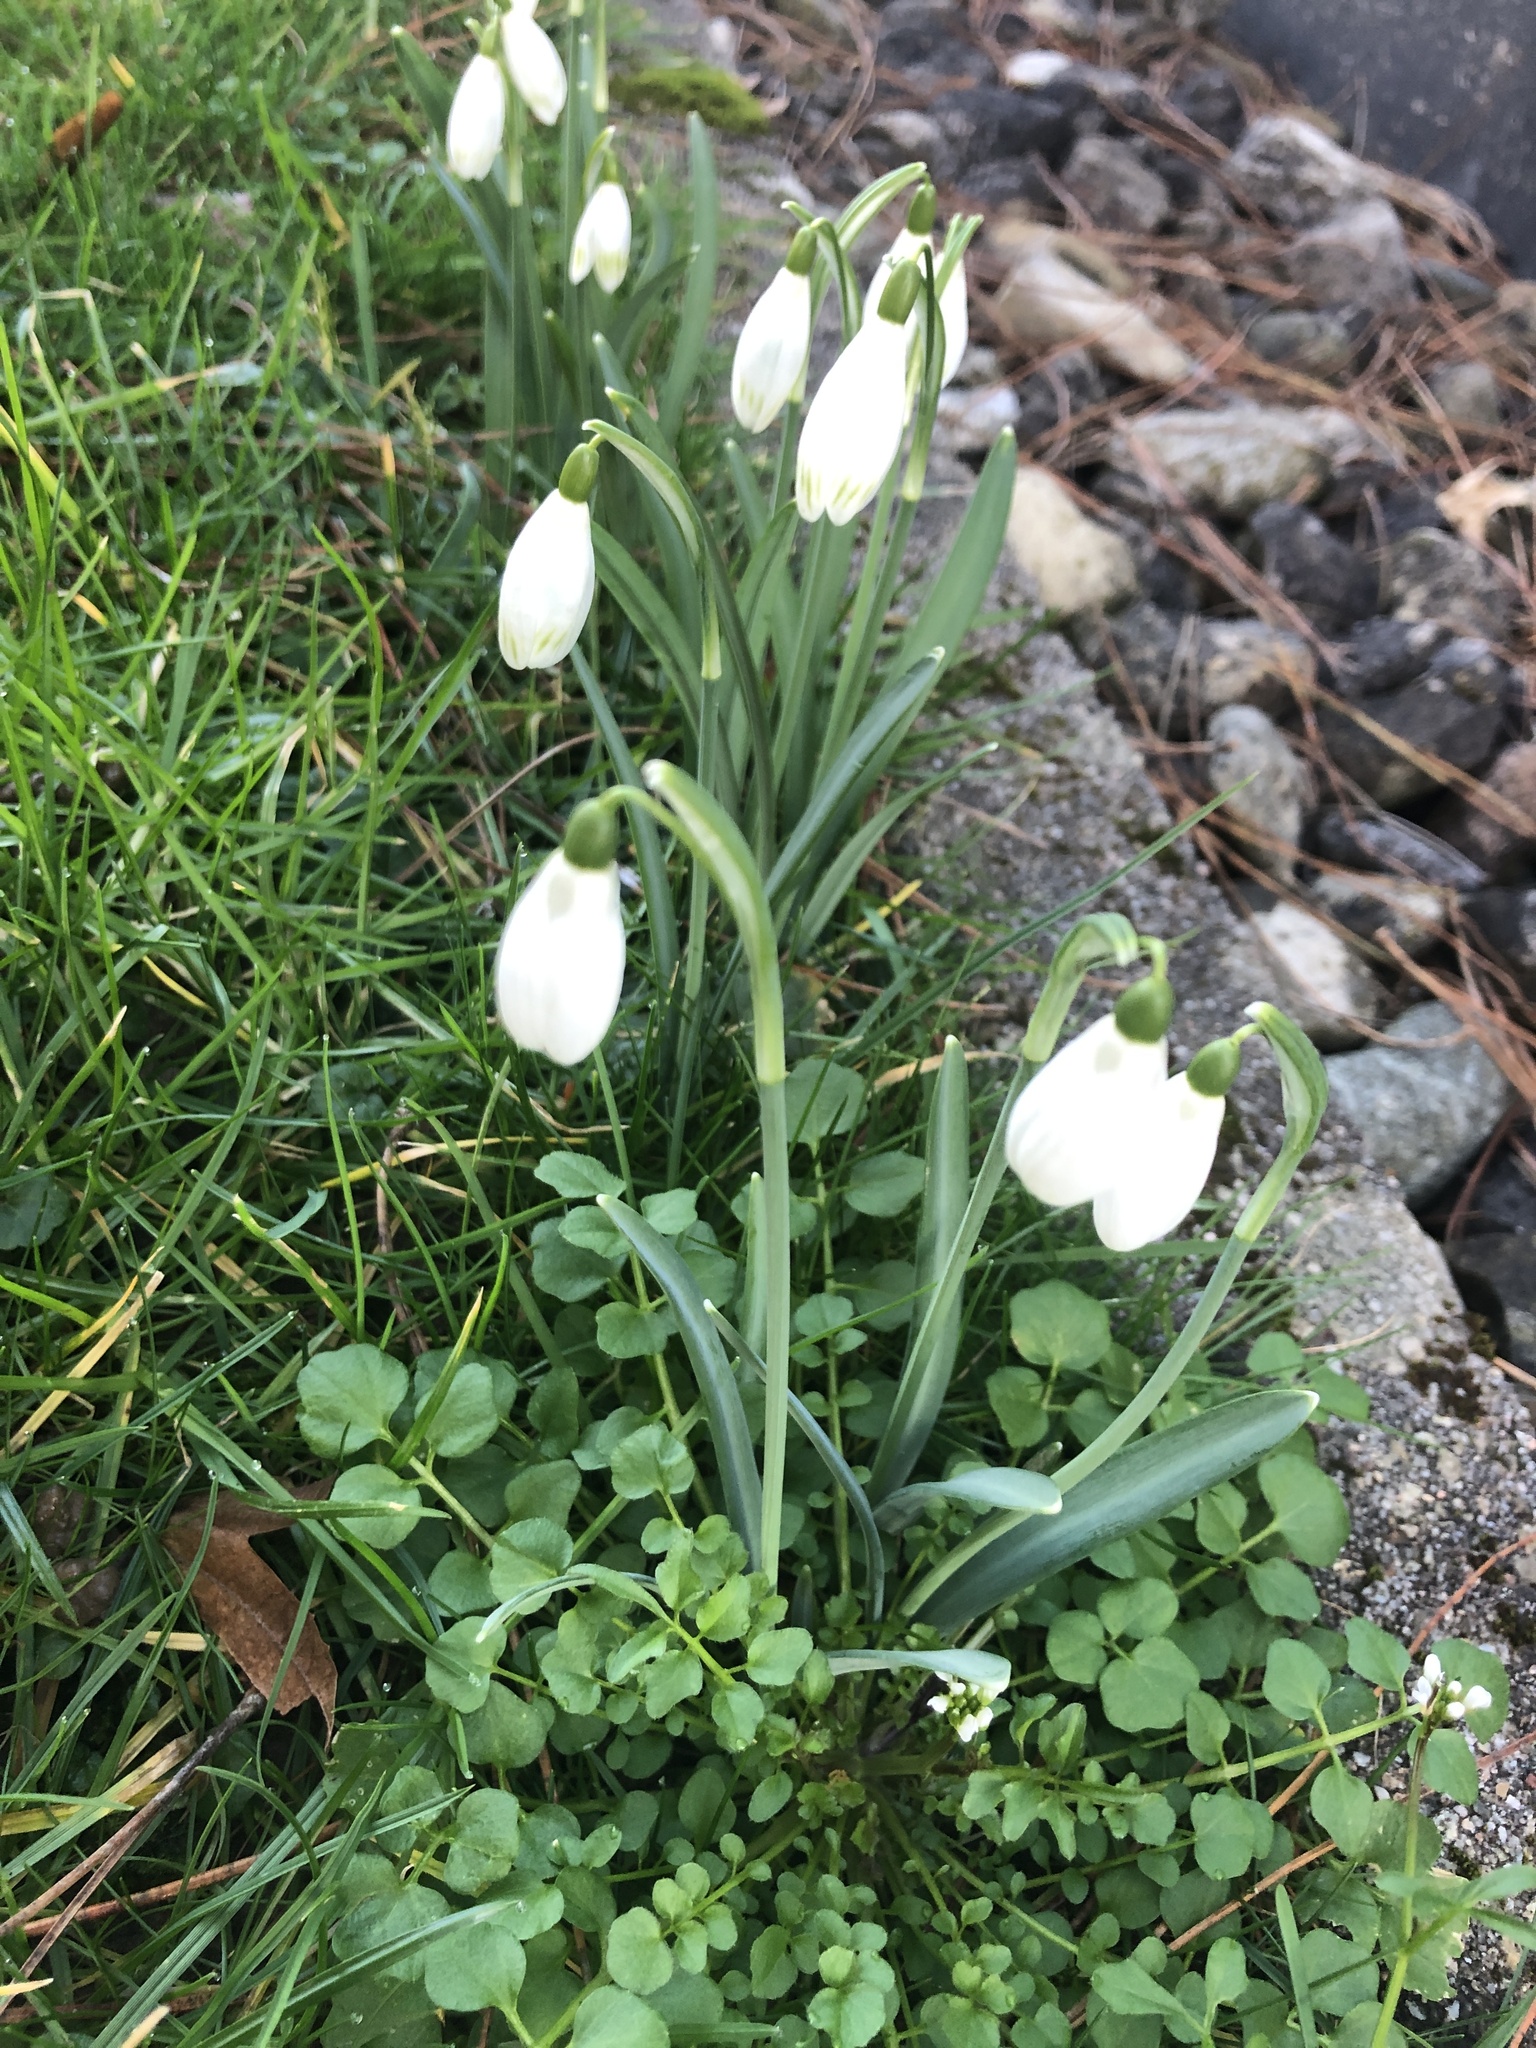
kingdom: Plantae
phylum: Tracheophyta
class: Liliopsida
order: Asparagales
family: Amaryllidaceae
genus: Galanthus
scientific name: Galanthus nivalis
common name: Snowdrop
